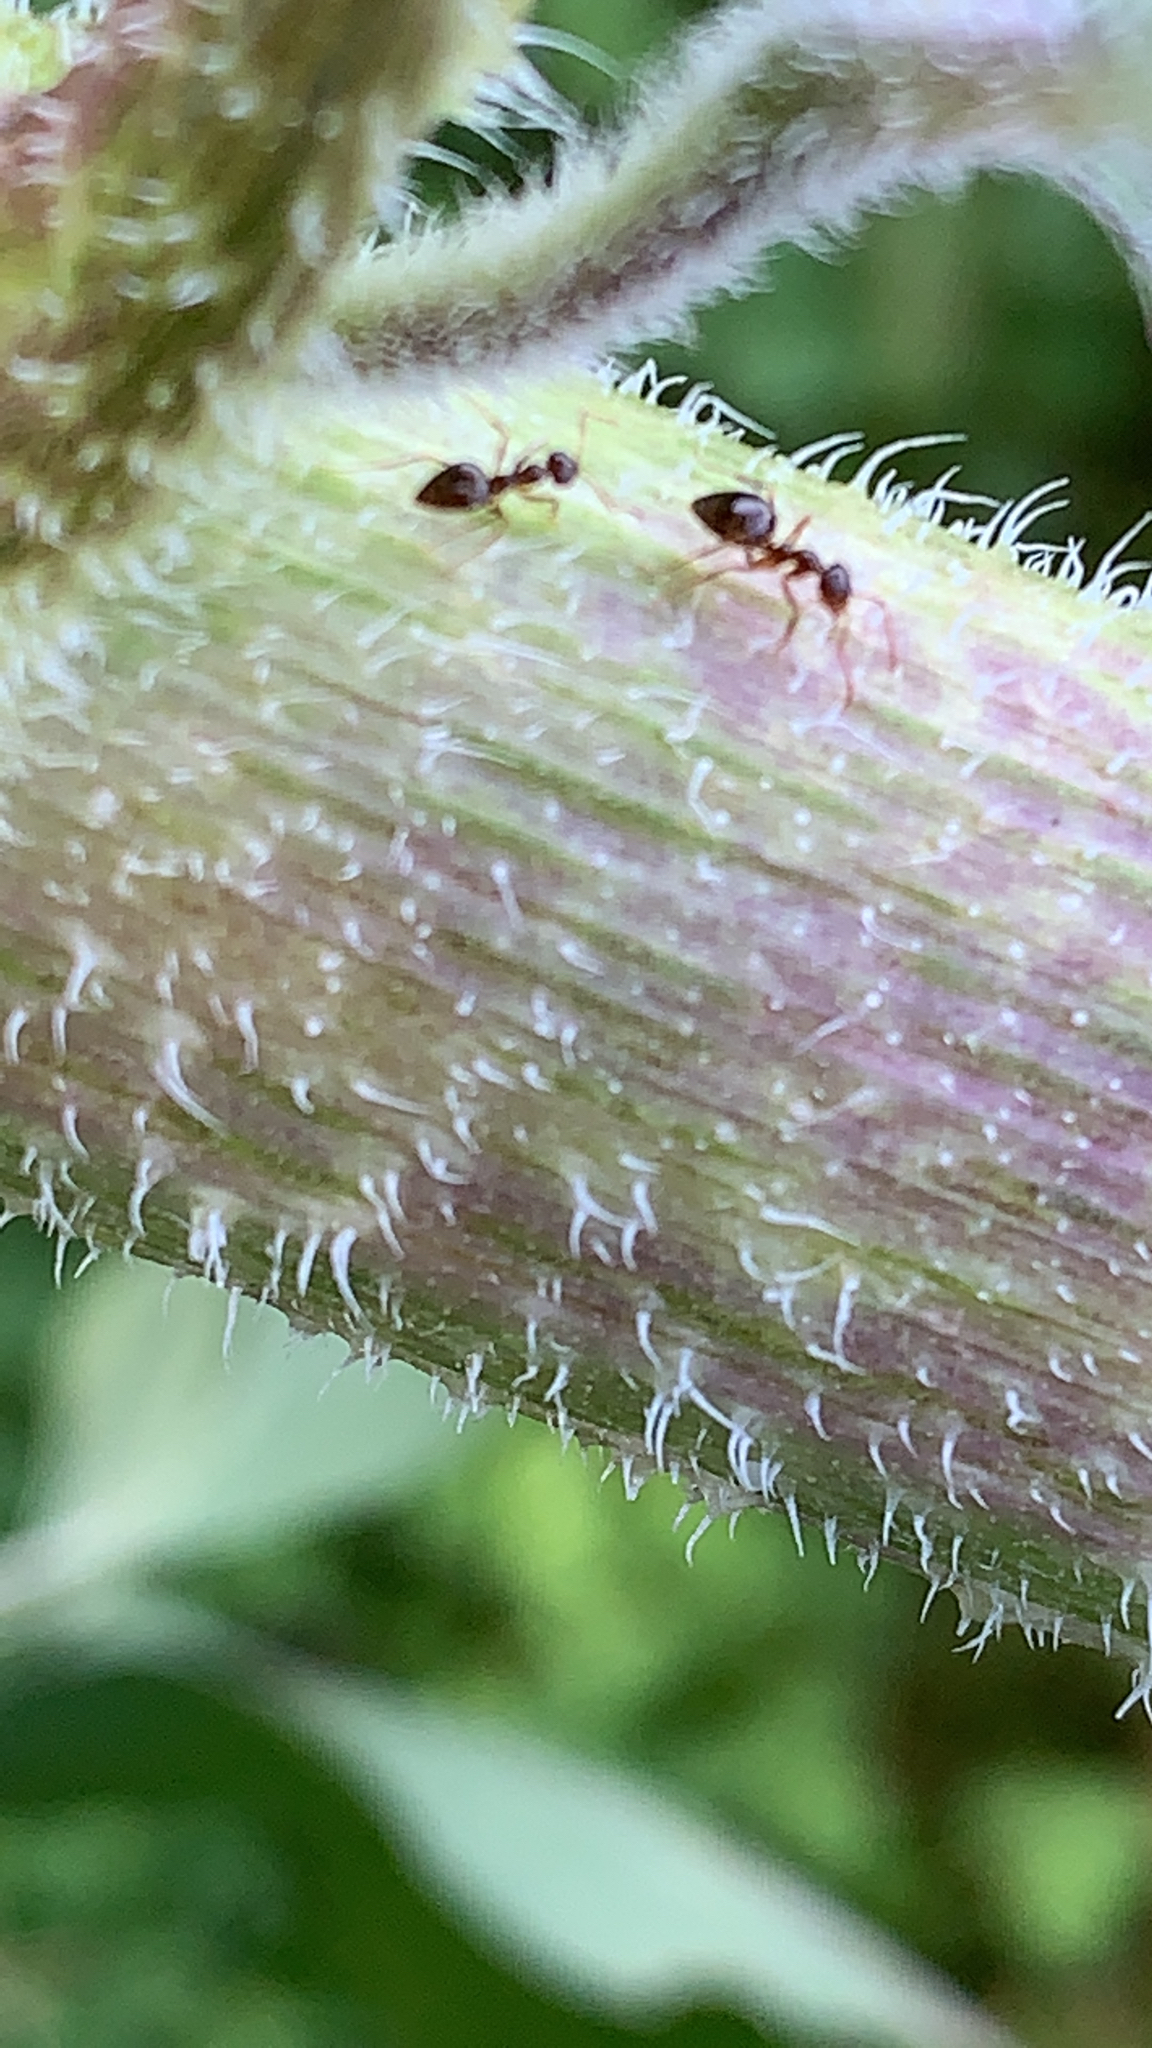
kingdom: Animalia
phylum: Arthropoda
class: Insecta
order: Hymenoptera
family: Formicidae
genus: Prenolepis
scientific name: Prenolepis imparis
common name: Small honey ant
